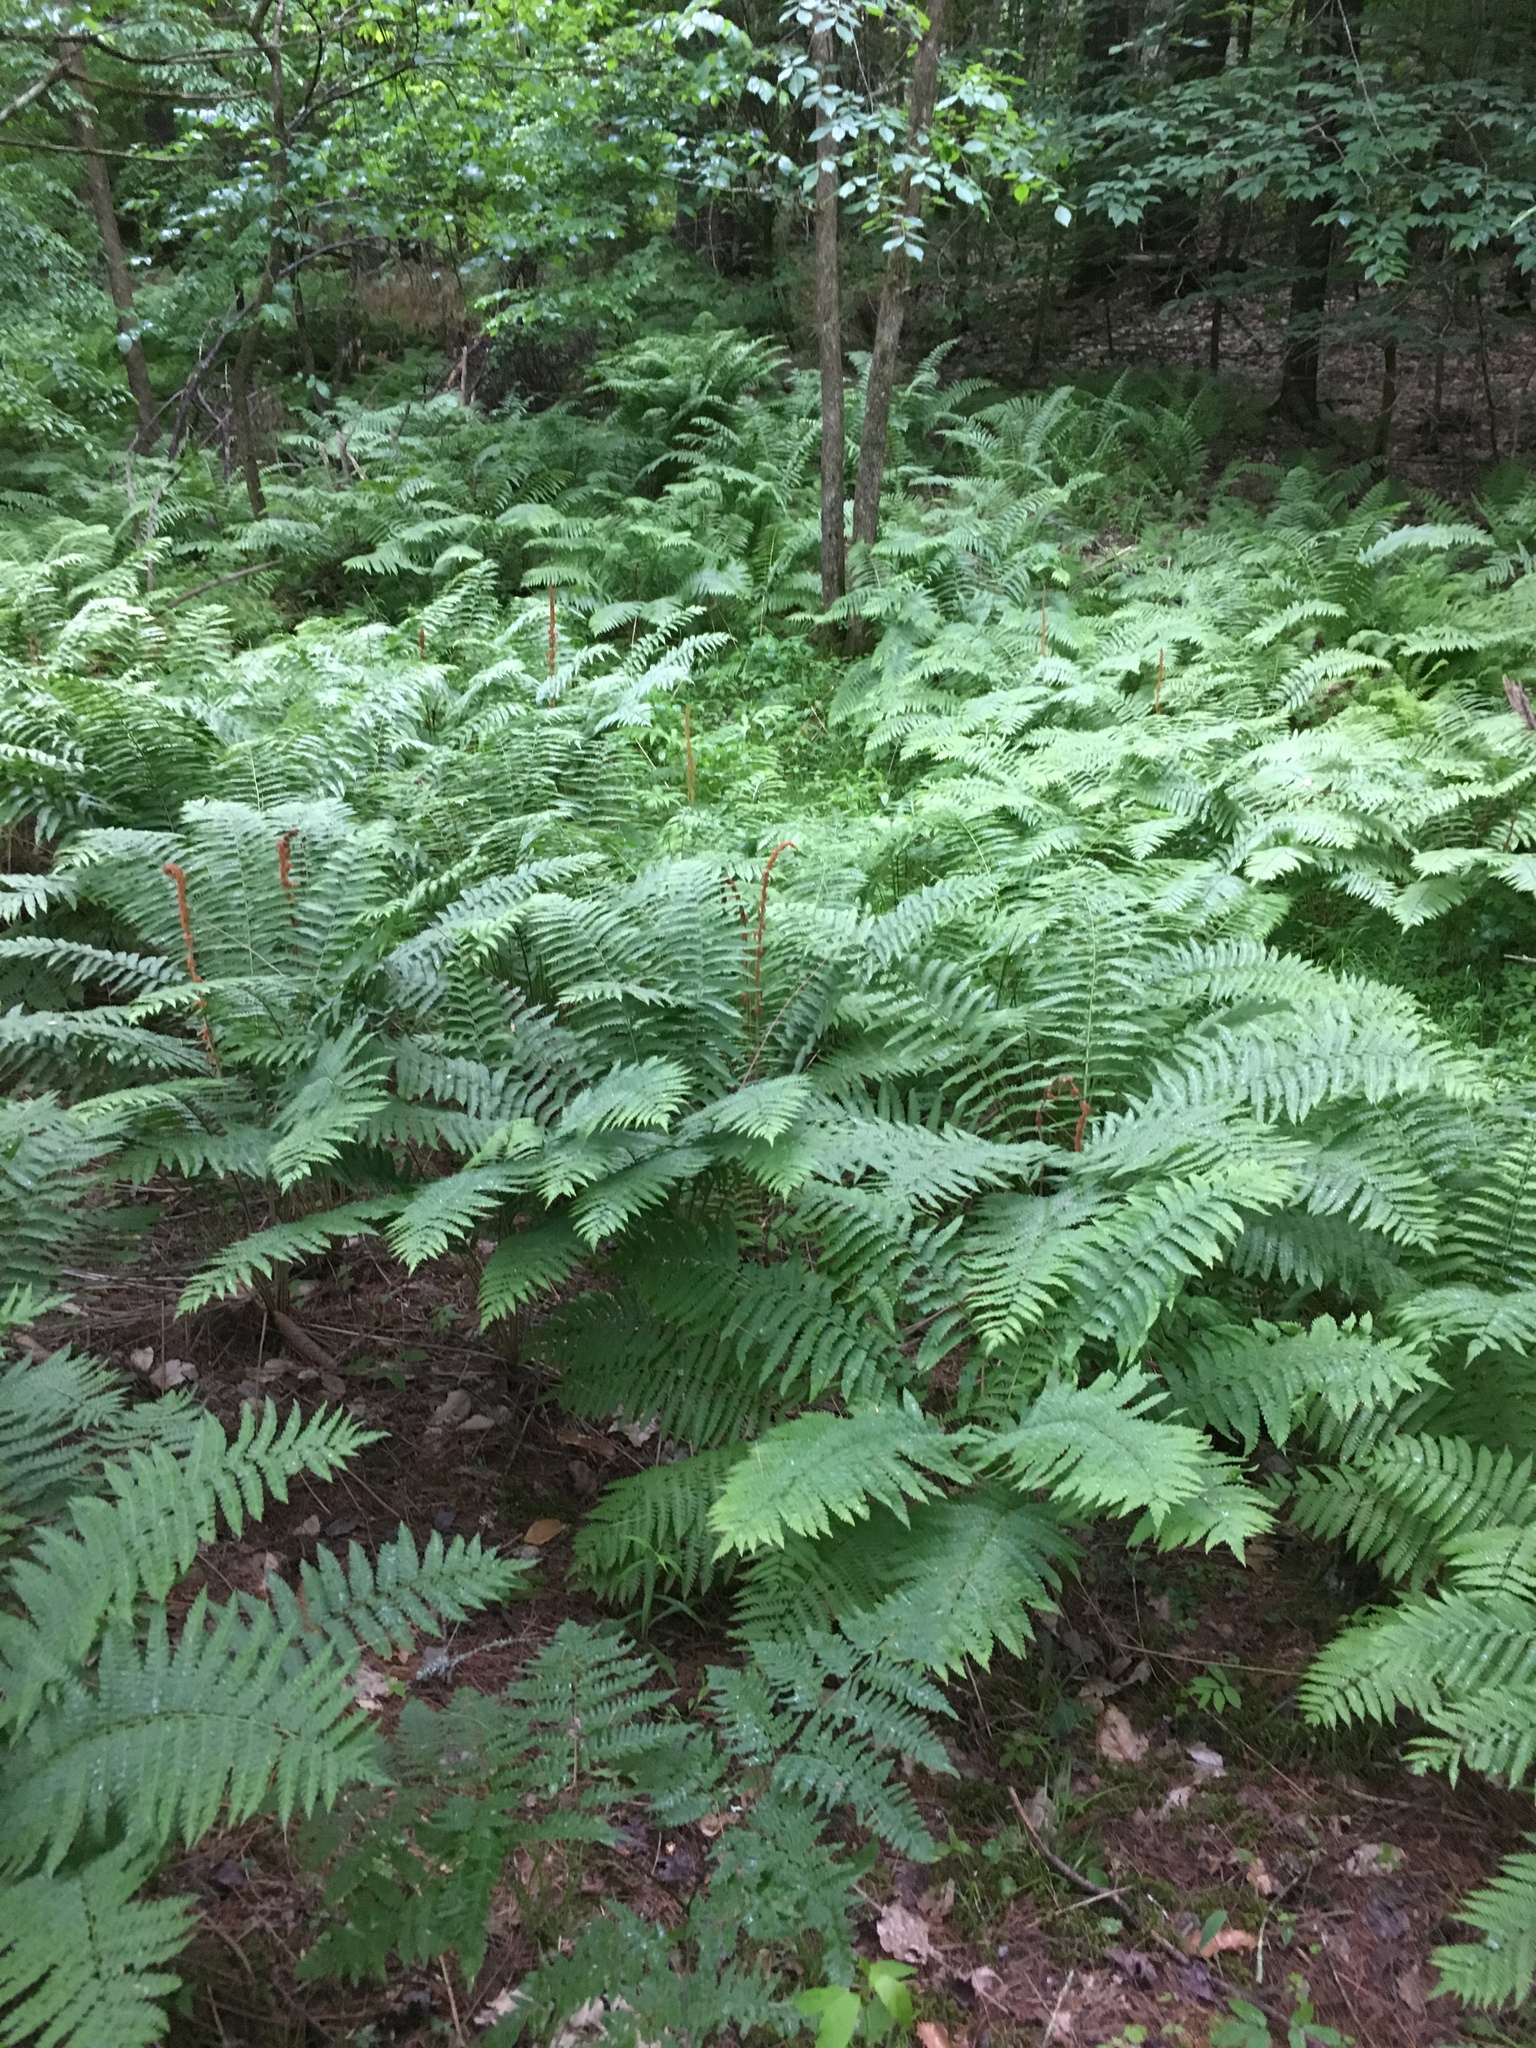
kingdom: Plantae
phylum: Tracheophyta
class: Polypodiopsida
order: Osmundales
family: Osmundaceae
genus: Osmundastrum
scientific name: Osmundastrum cinnamomeum
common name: Cinnamon fern
